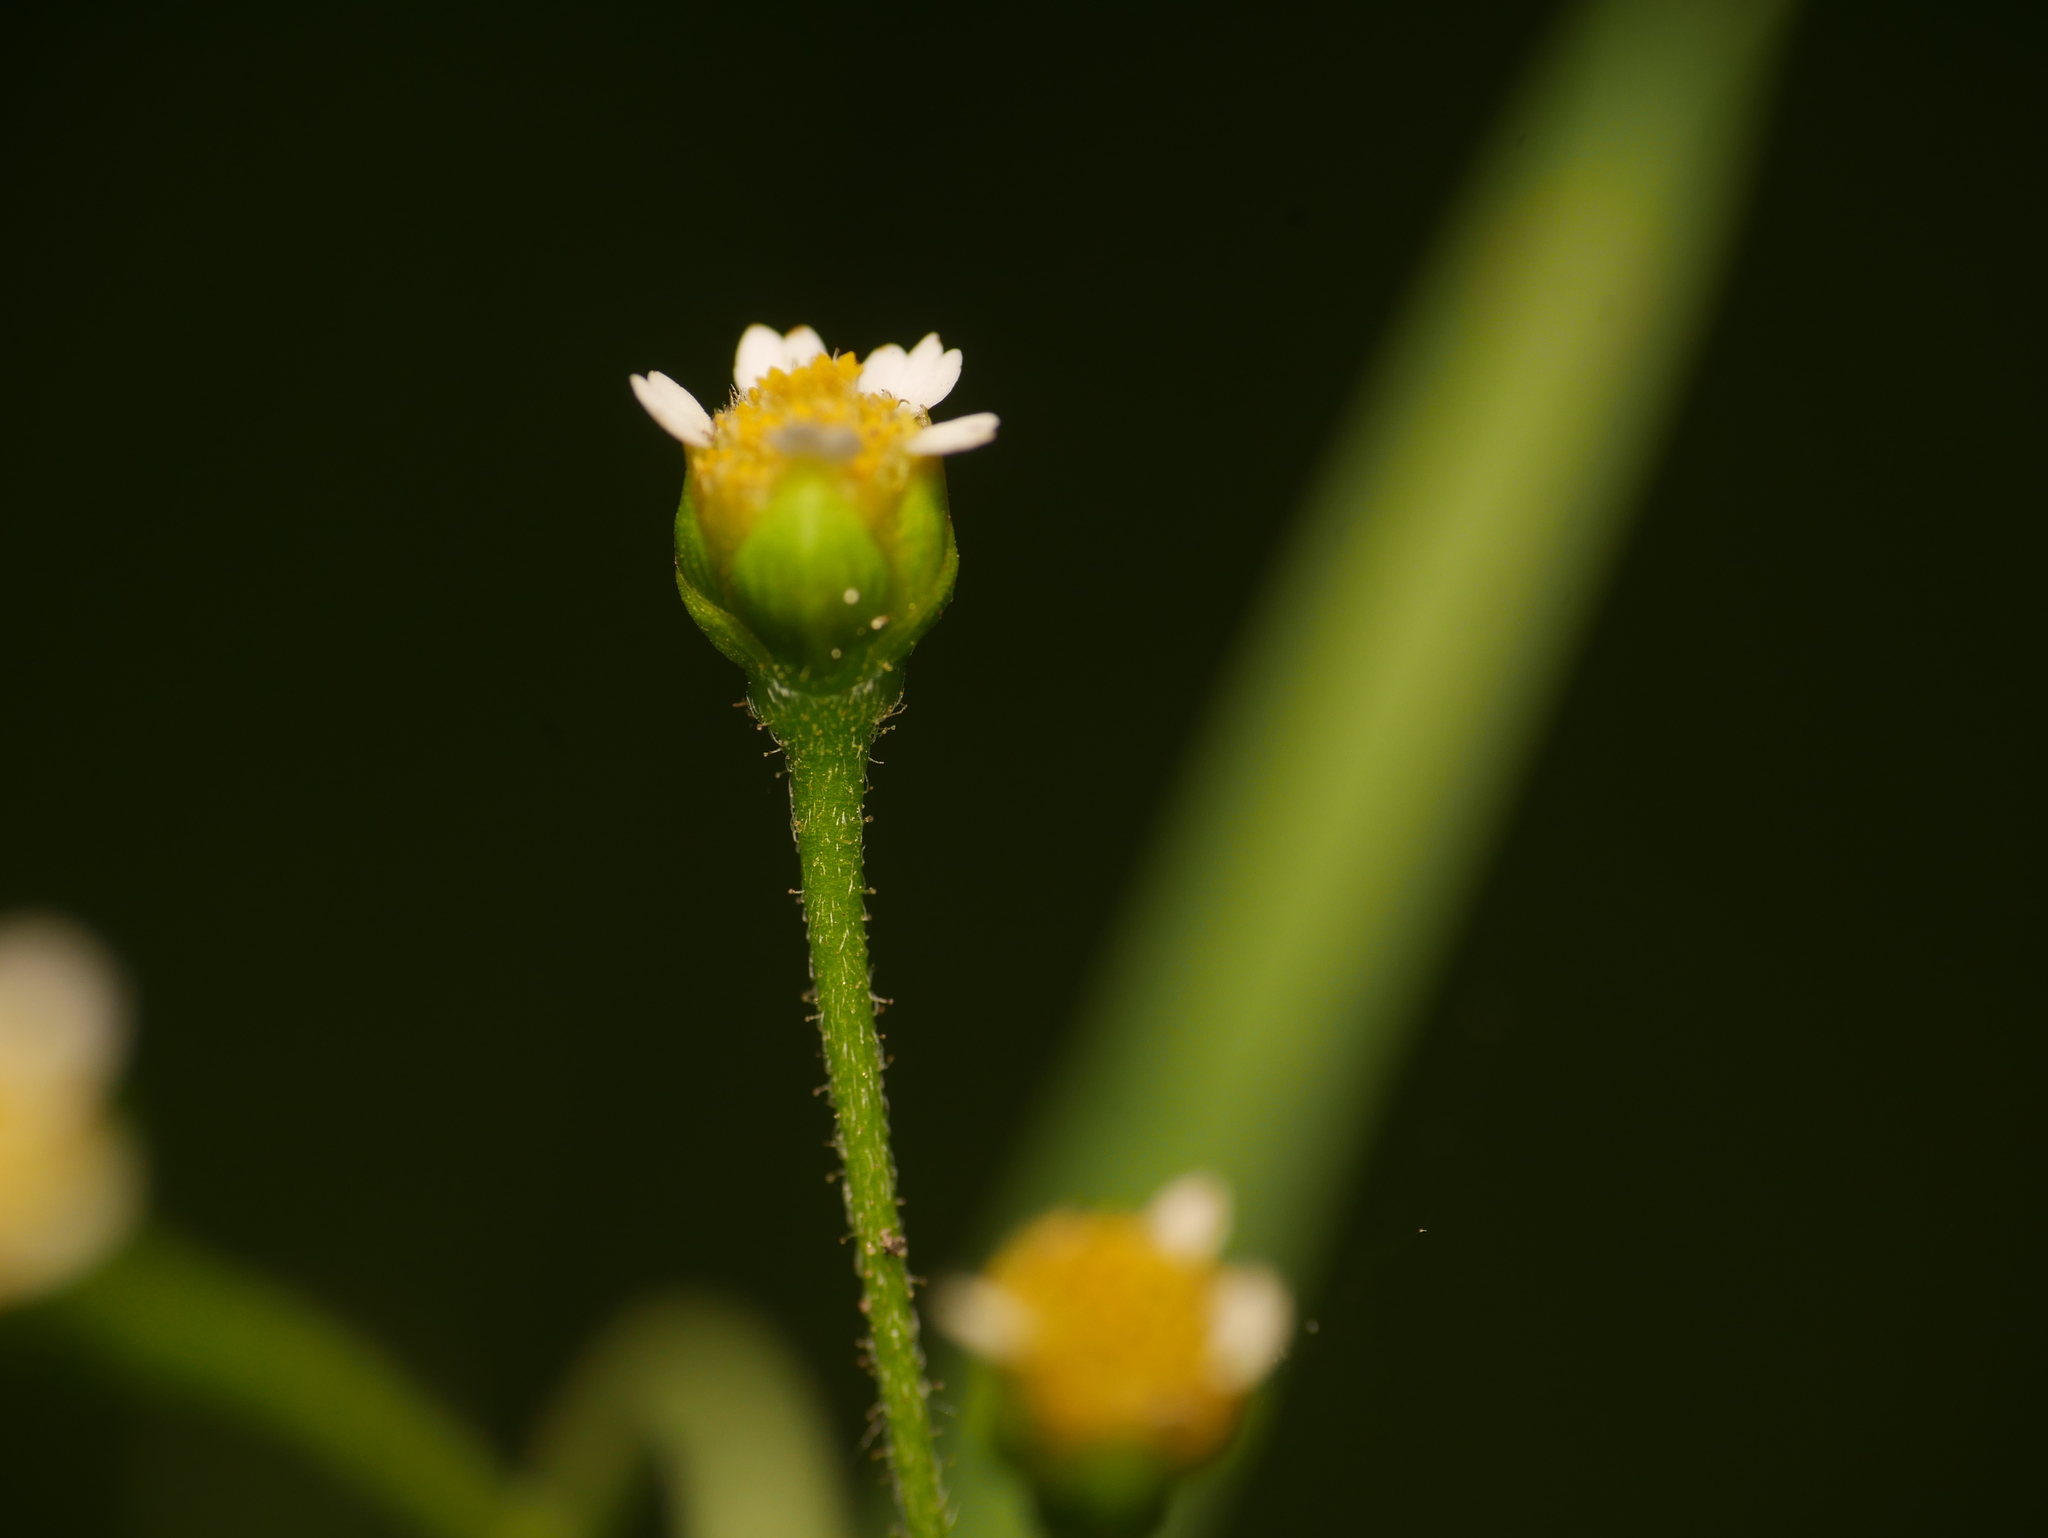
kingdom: Plantae
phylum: Tracheophyta
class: Magnoliopsida
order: Asterales
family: Asteraceae
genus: Galinsoga
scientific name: Galinsoga quadriradiata
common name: Shaggy soldier
